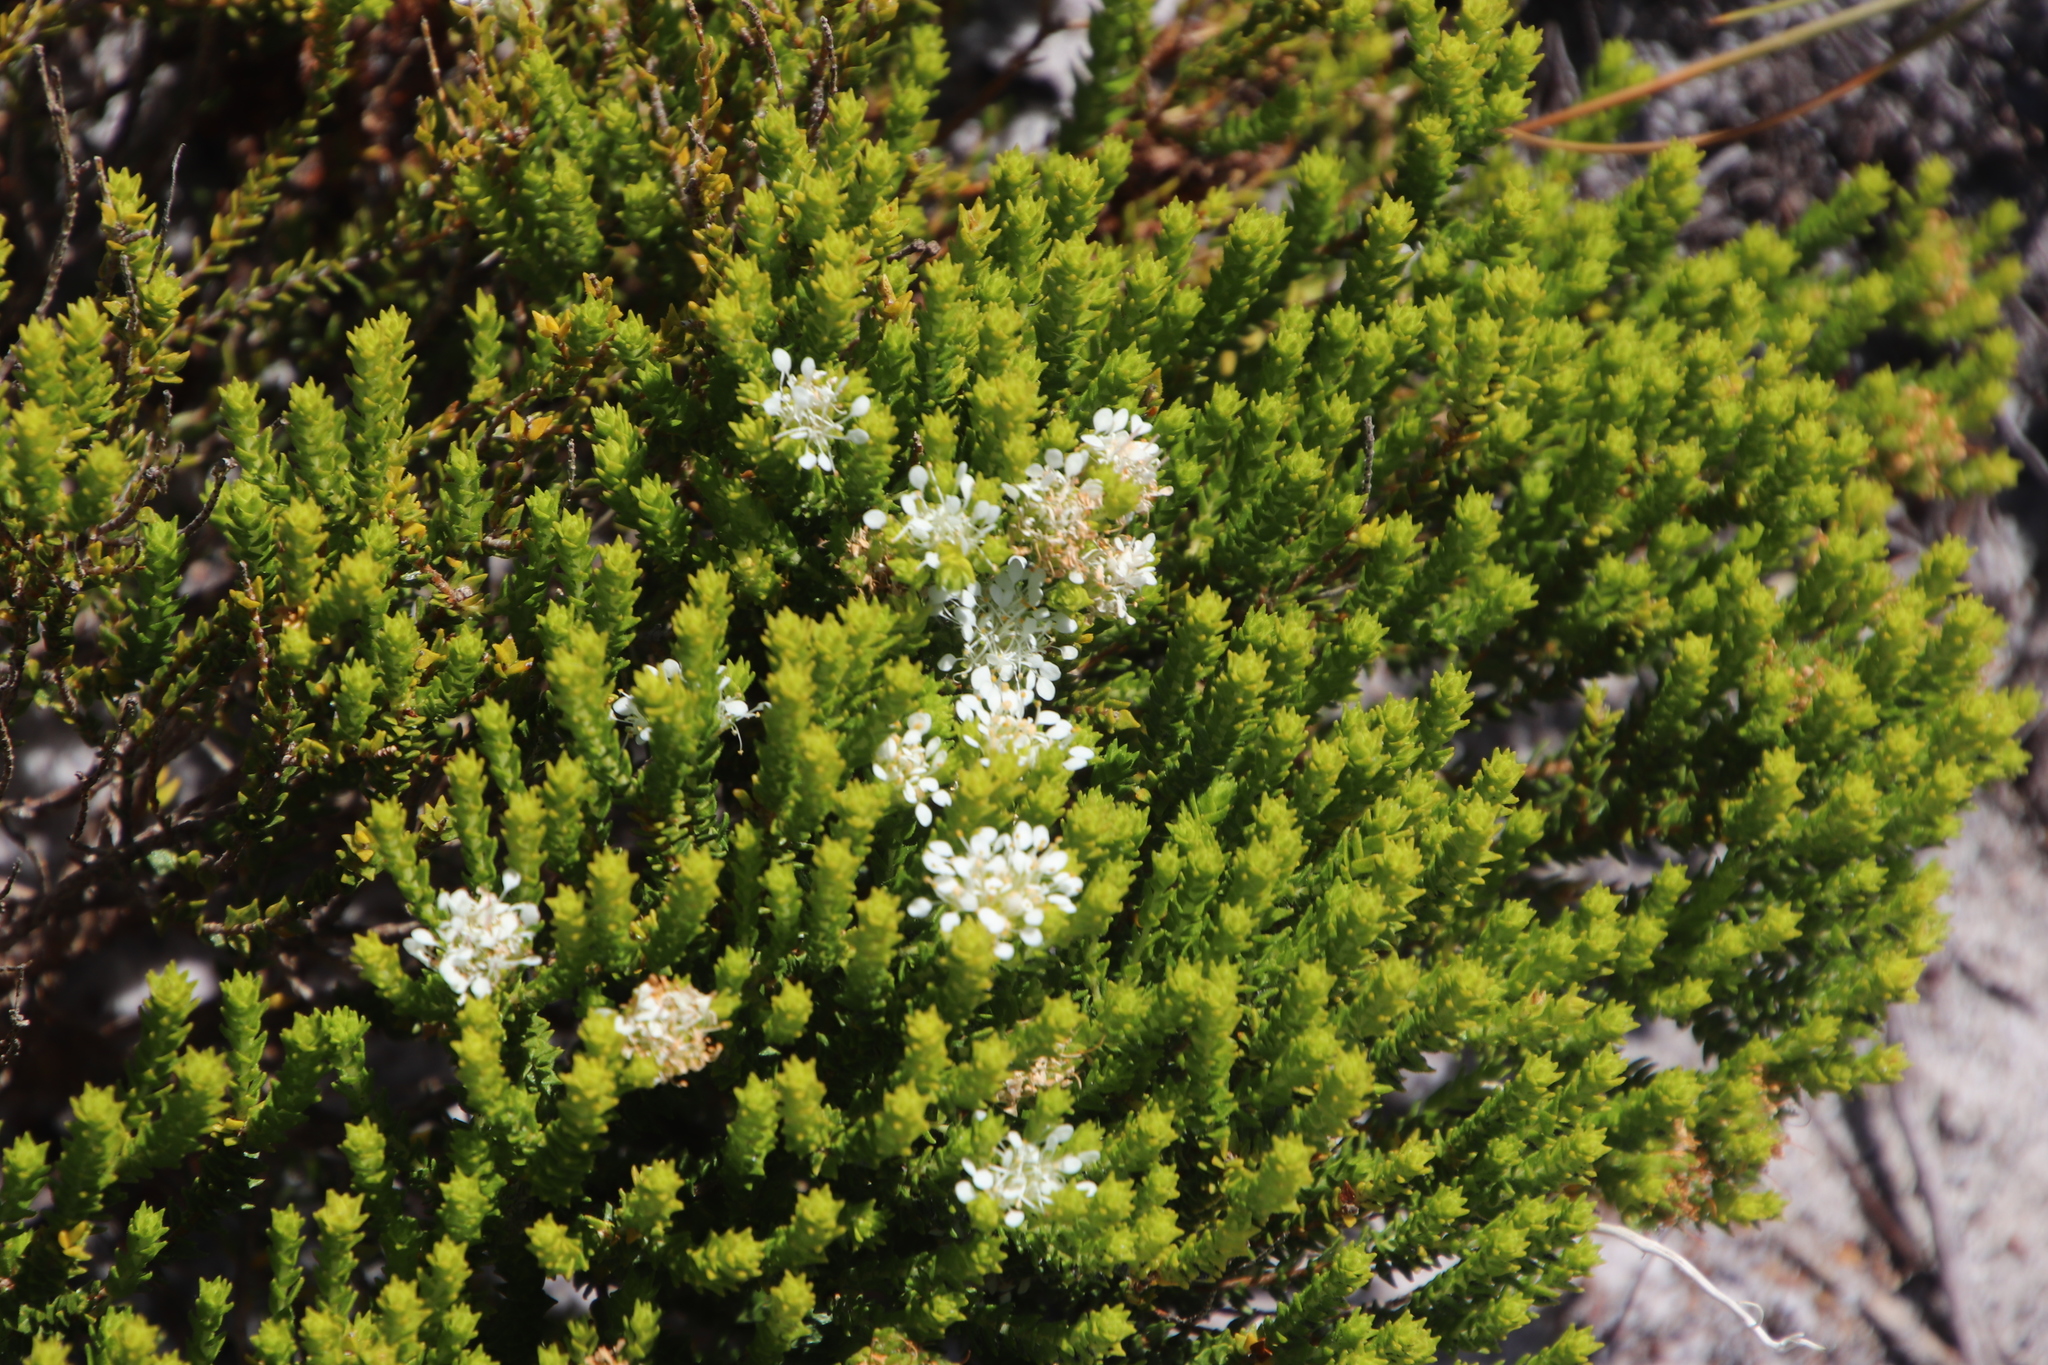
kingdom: Plantae
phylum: Tracheophyta
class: Magnoliopsida
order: Sapindales
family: Rutaceae
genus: Agathosma
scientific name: Agathosma imbricata
